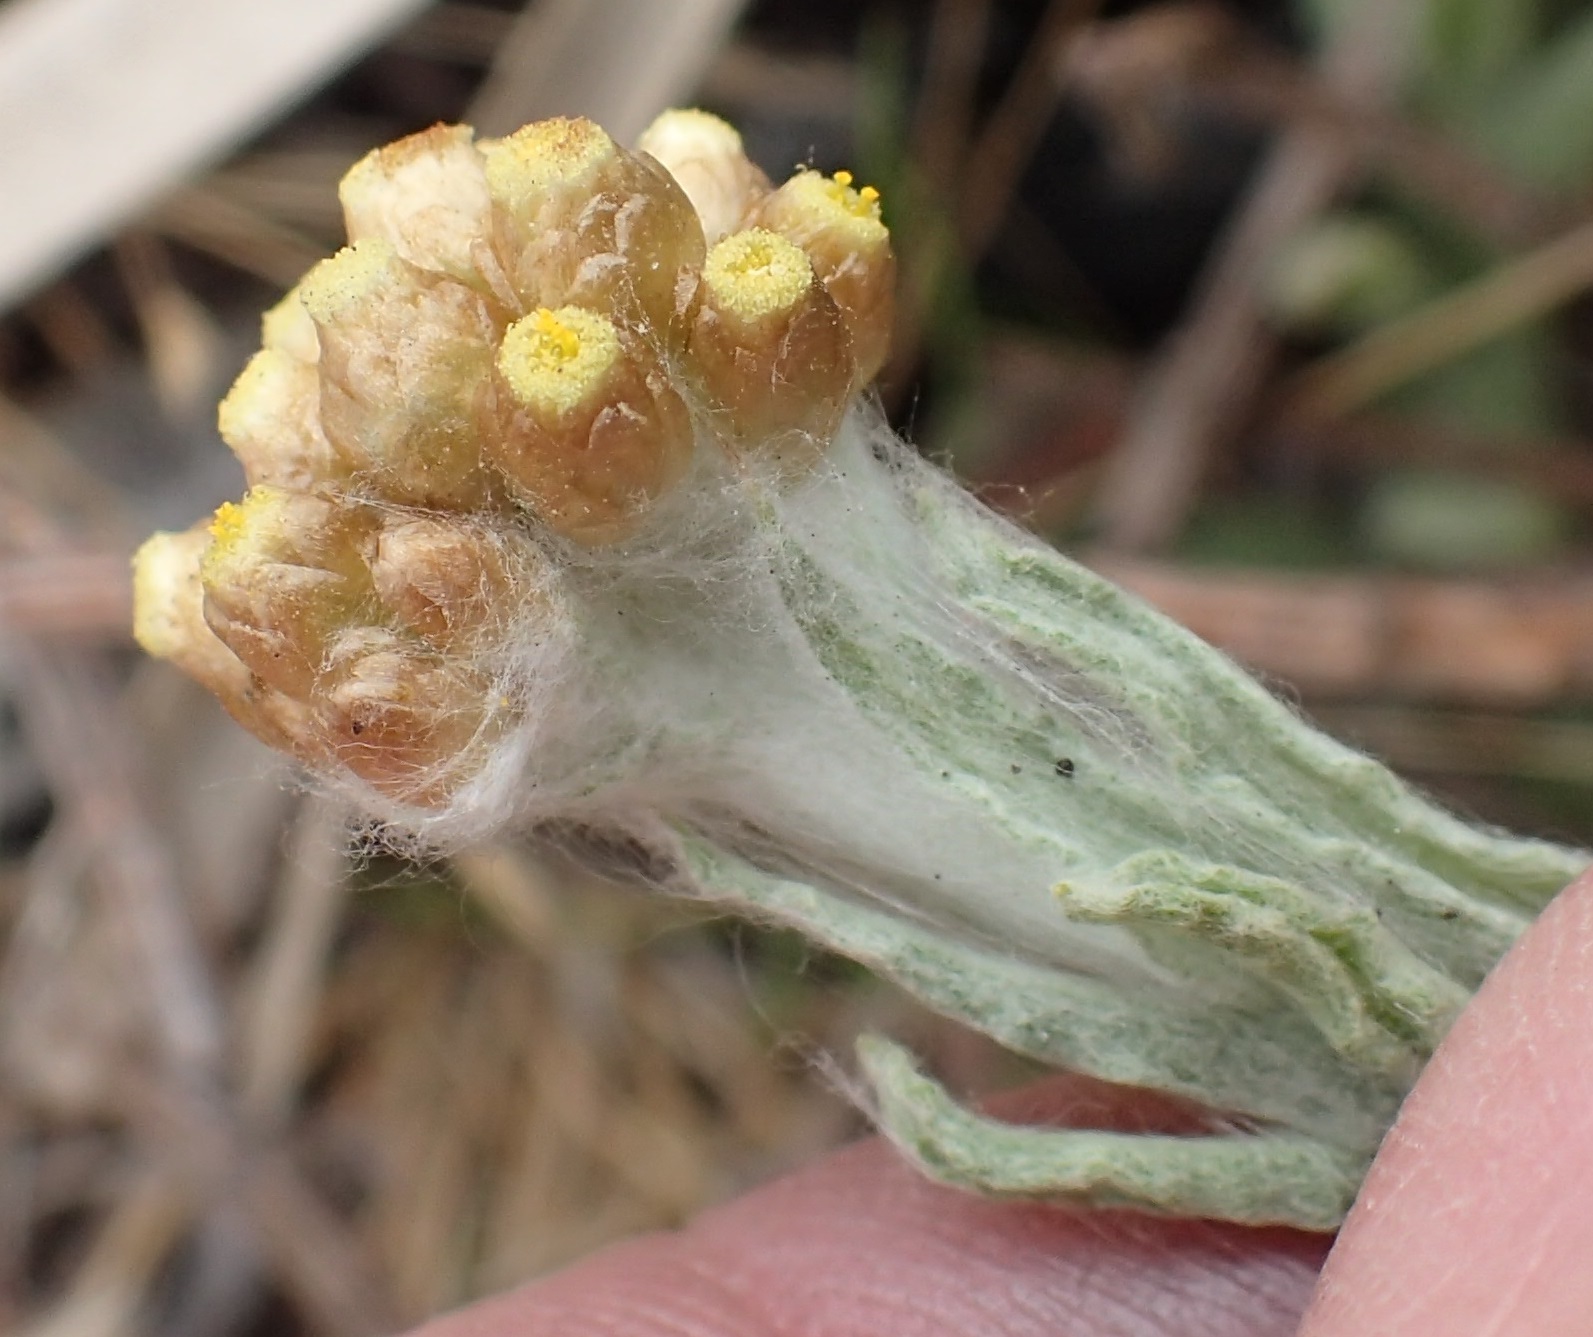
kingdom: Plantae
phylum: Tracheophyta
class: Magnoliopsida
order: Asterales
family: Asteraceae
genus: Helichrysum
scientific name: Helichrysum luteoalbum
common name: Daisy
